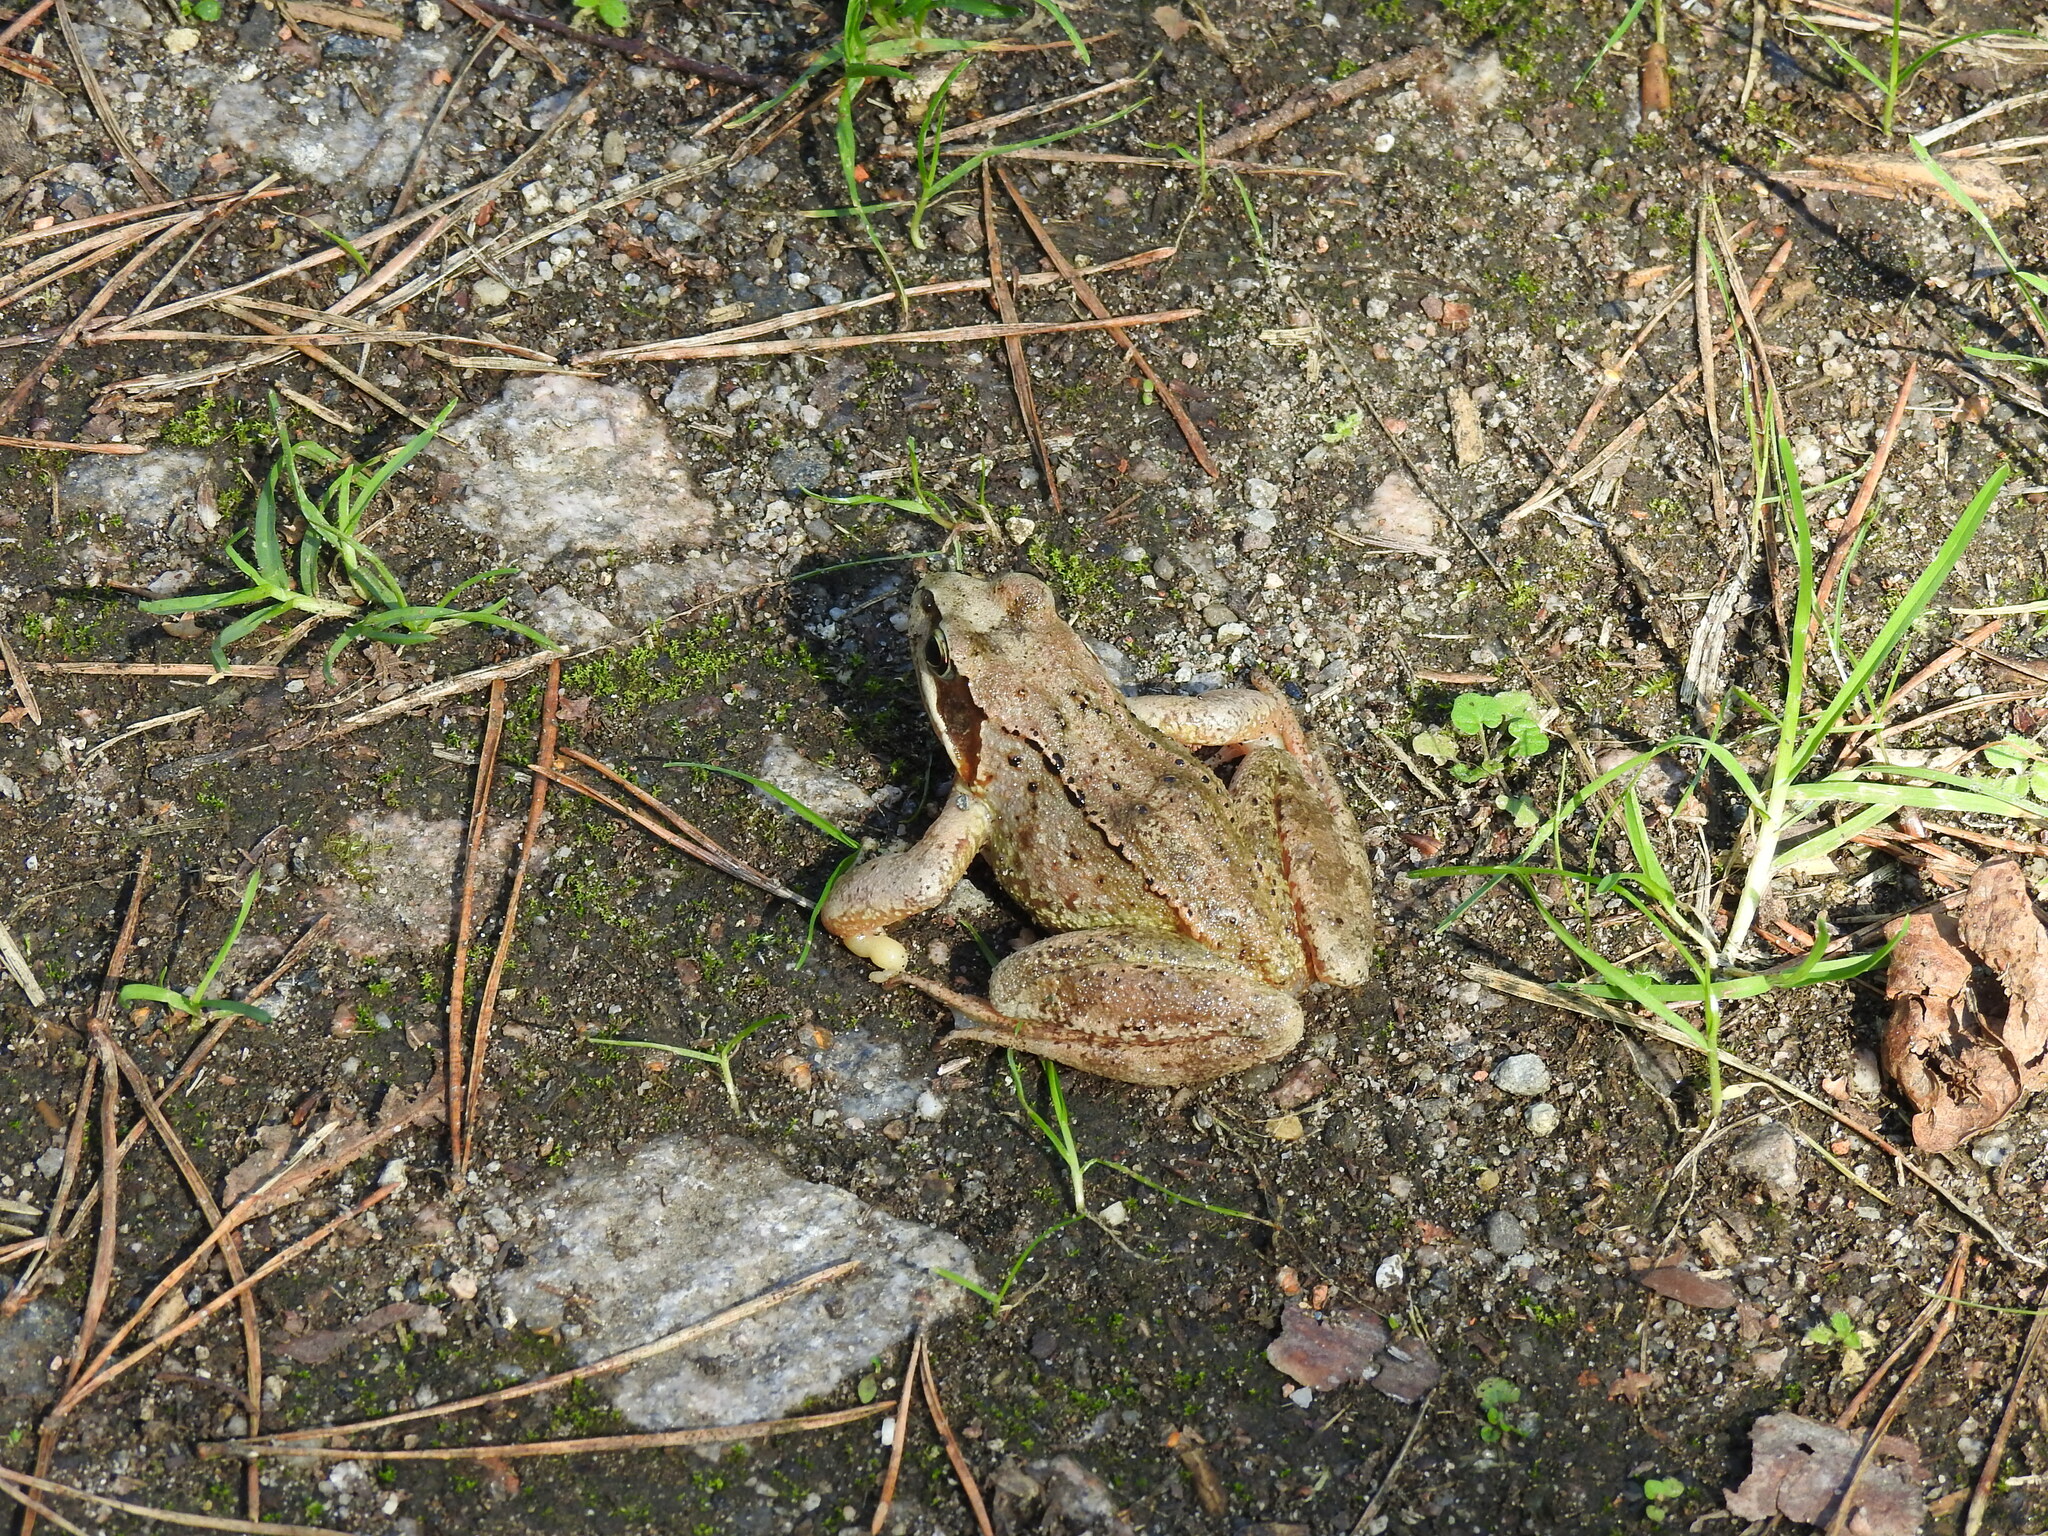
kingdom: Animalia
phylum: Chordata
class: Amphibia
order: Anura
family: Ranidae
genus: Rana
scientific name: Rana temporaria
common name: Common frog
